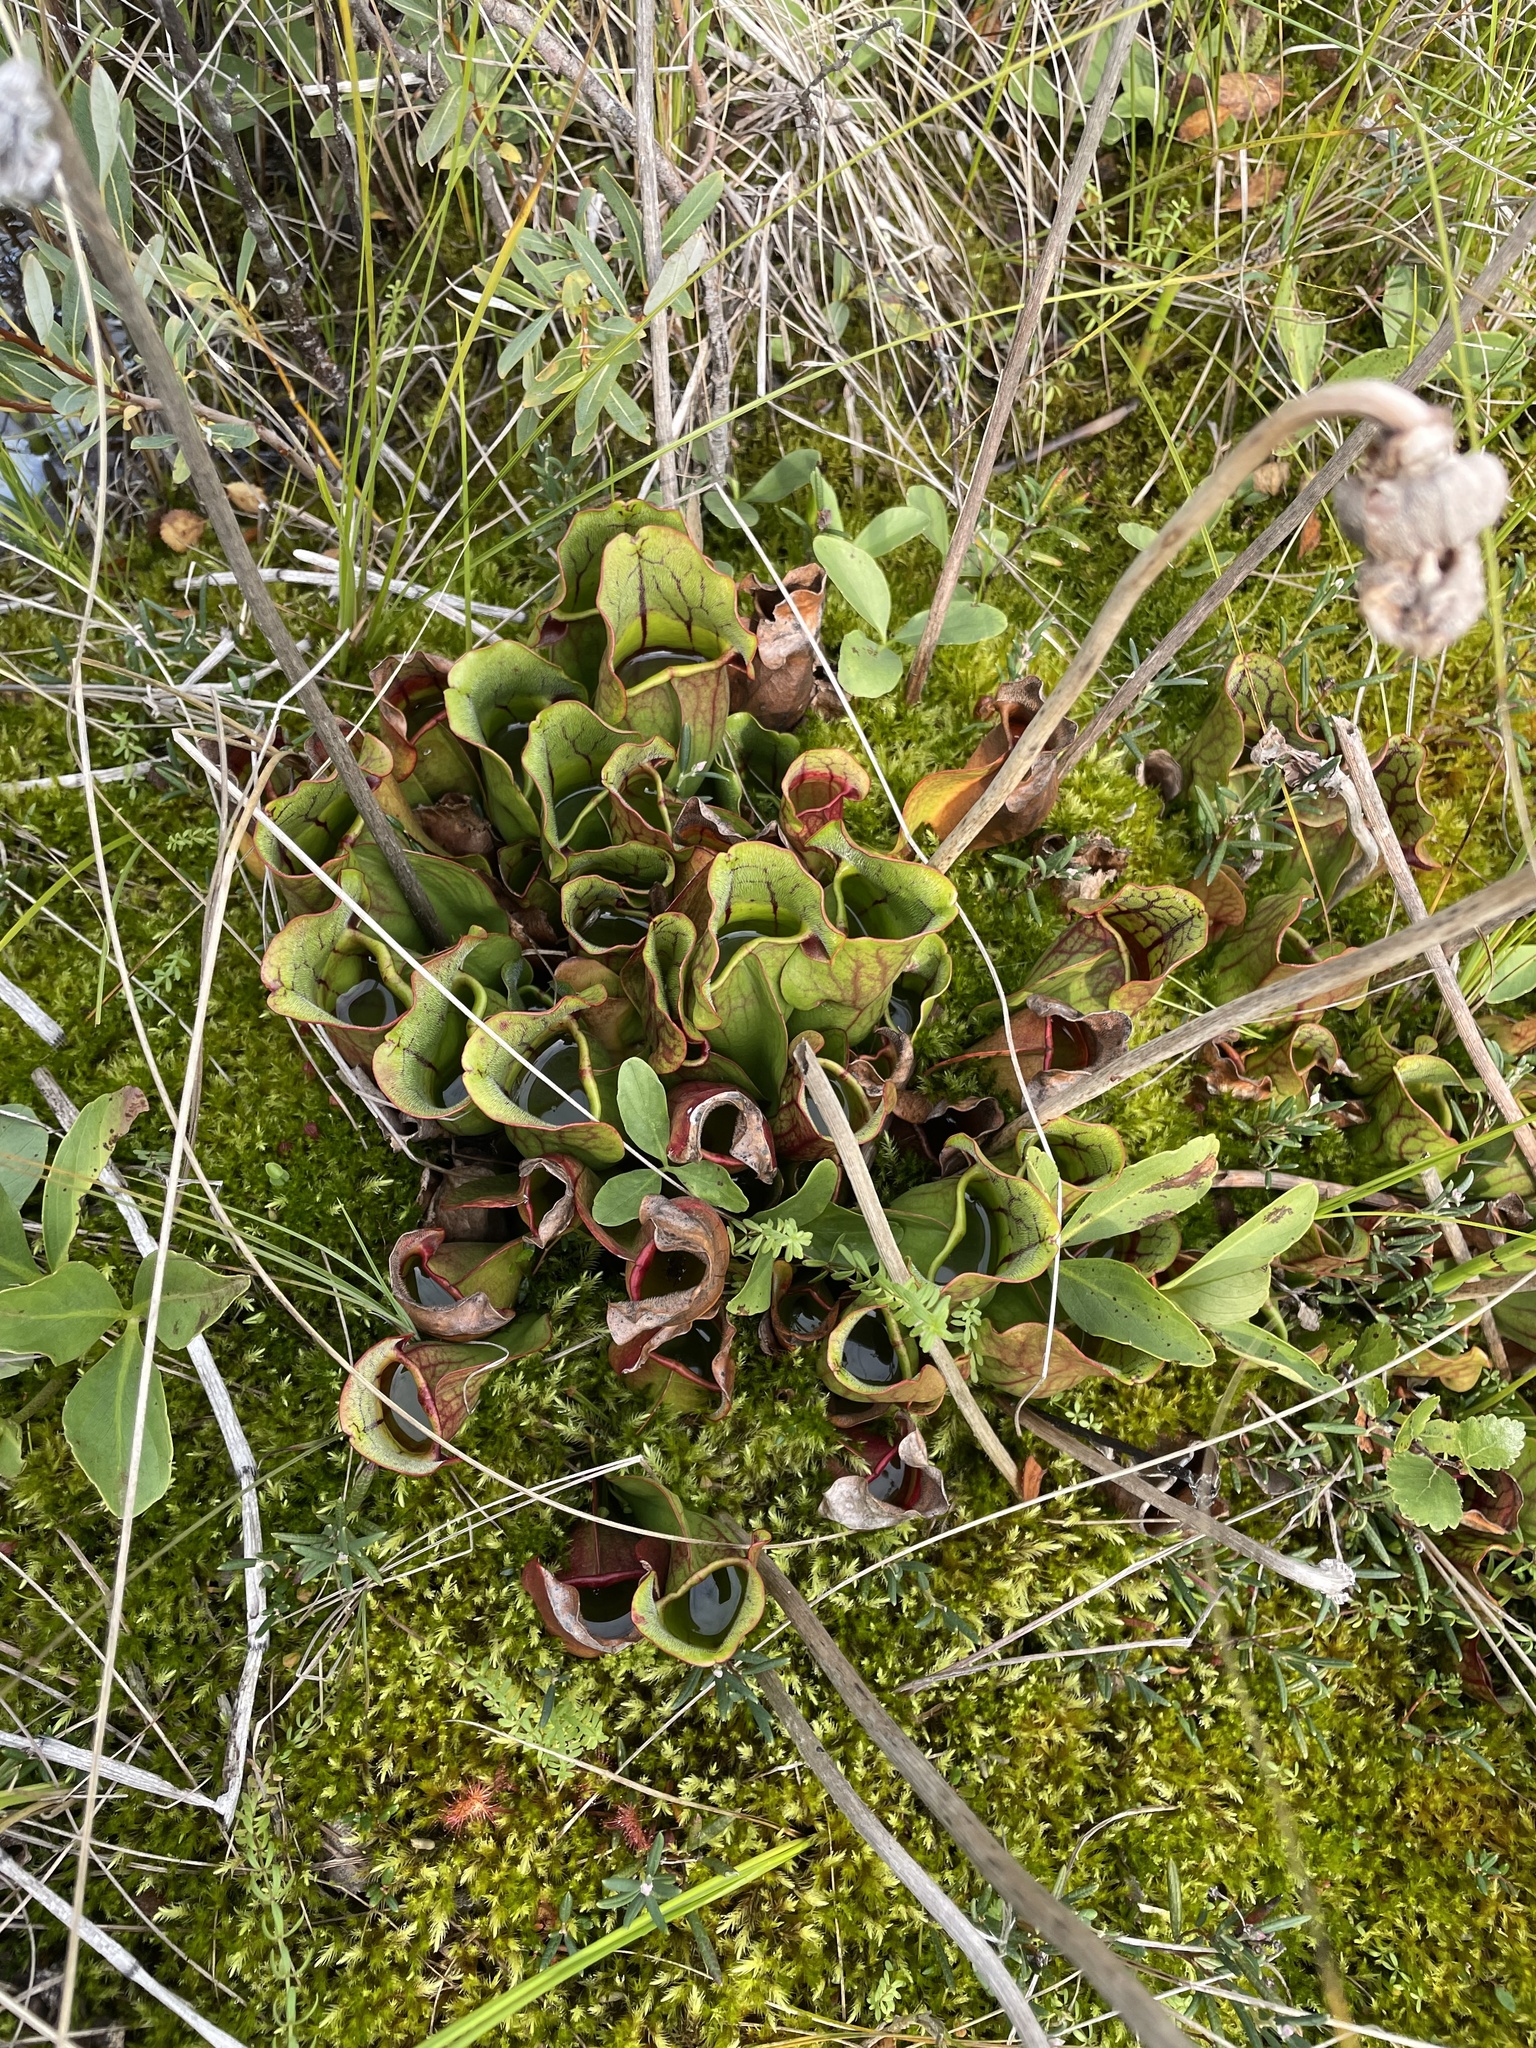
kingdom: Plantae
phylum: Tracheophyta
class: Magnoliopsida
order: Asterales
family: Menyanthaceae
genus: Menyanthes
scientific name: Menyanthes trifoliata
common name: Bogbean
